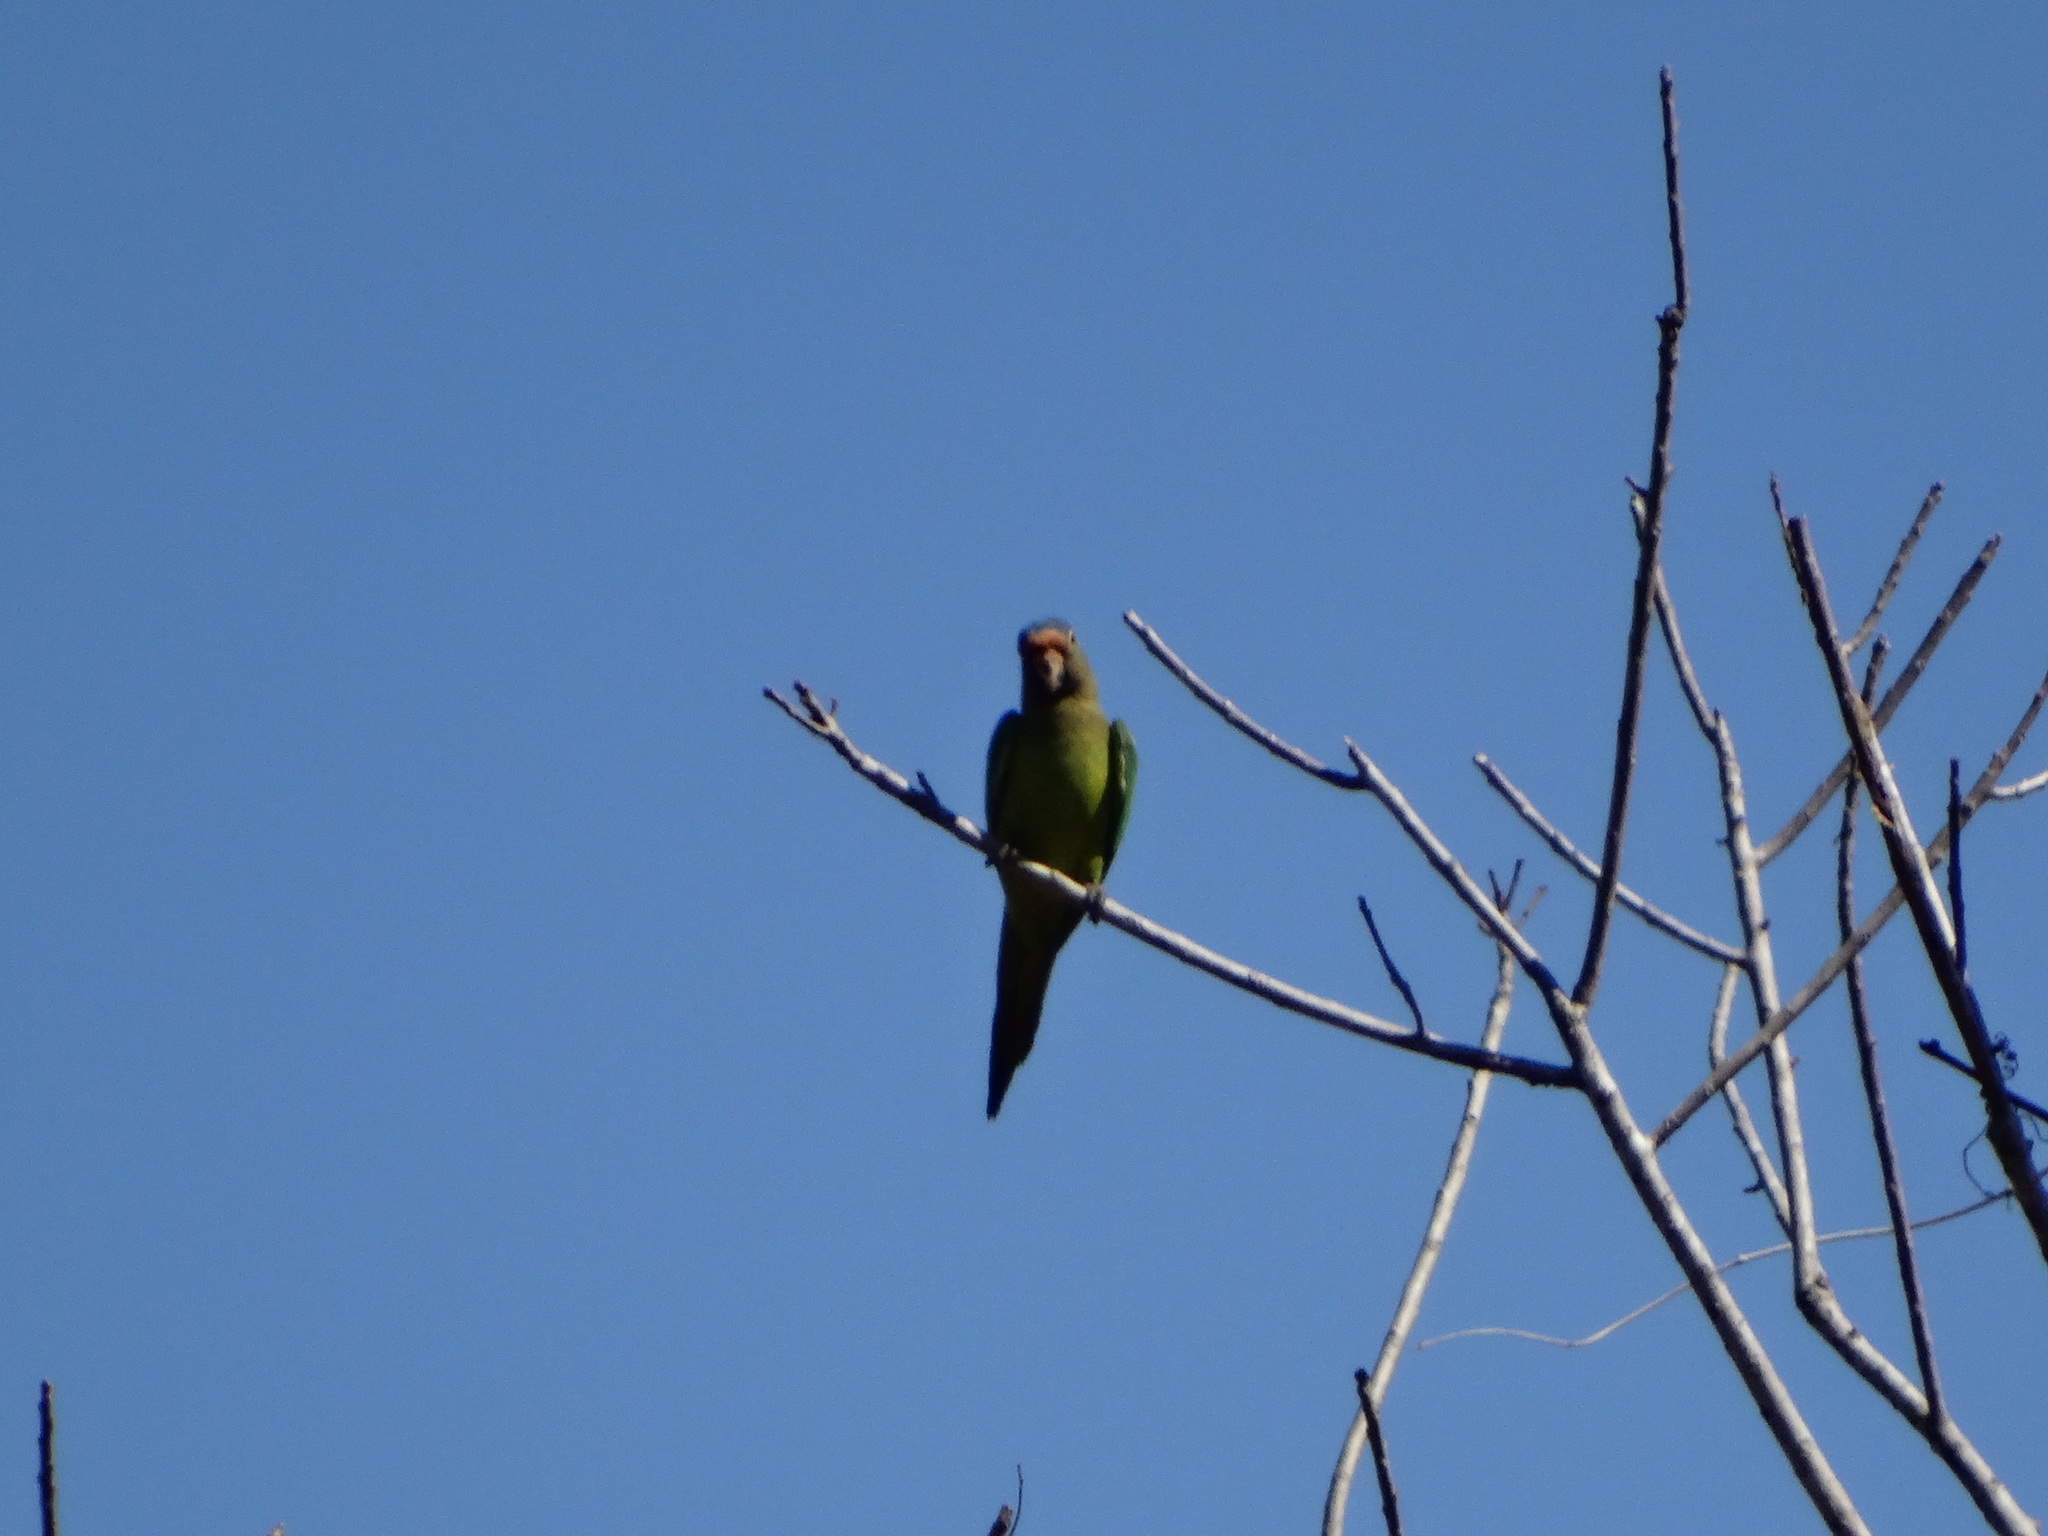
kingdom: Animalia
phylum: Chordata
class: Aves
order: Psittaciformes
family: Psittacidae
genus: Aratinga
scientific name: Aratinga canicularis
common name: Orange-fronted parakeet
